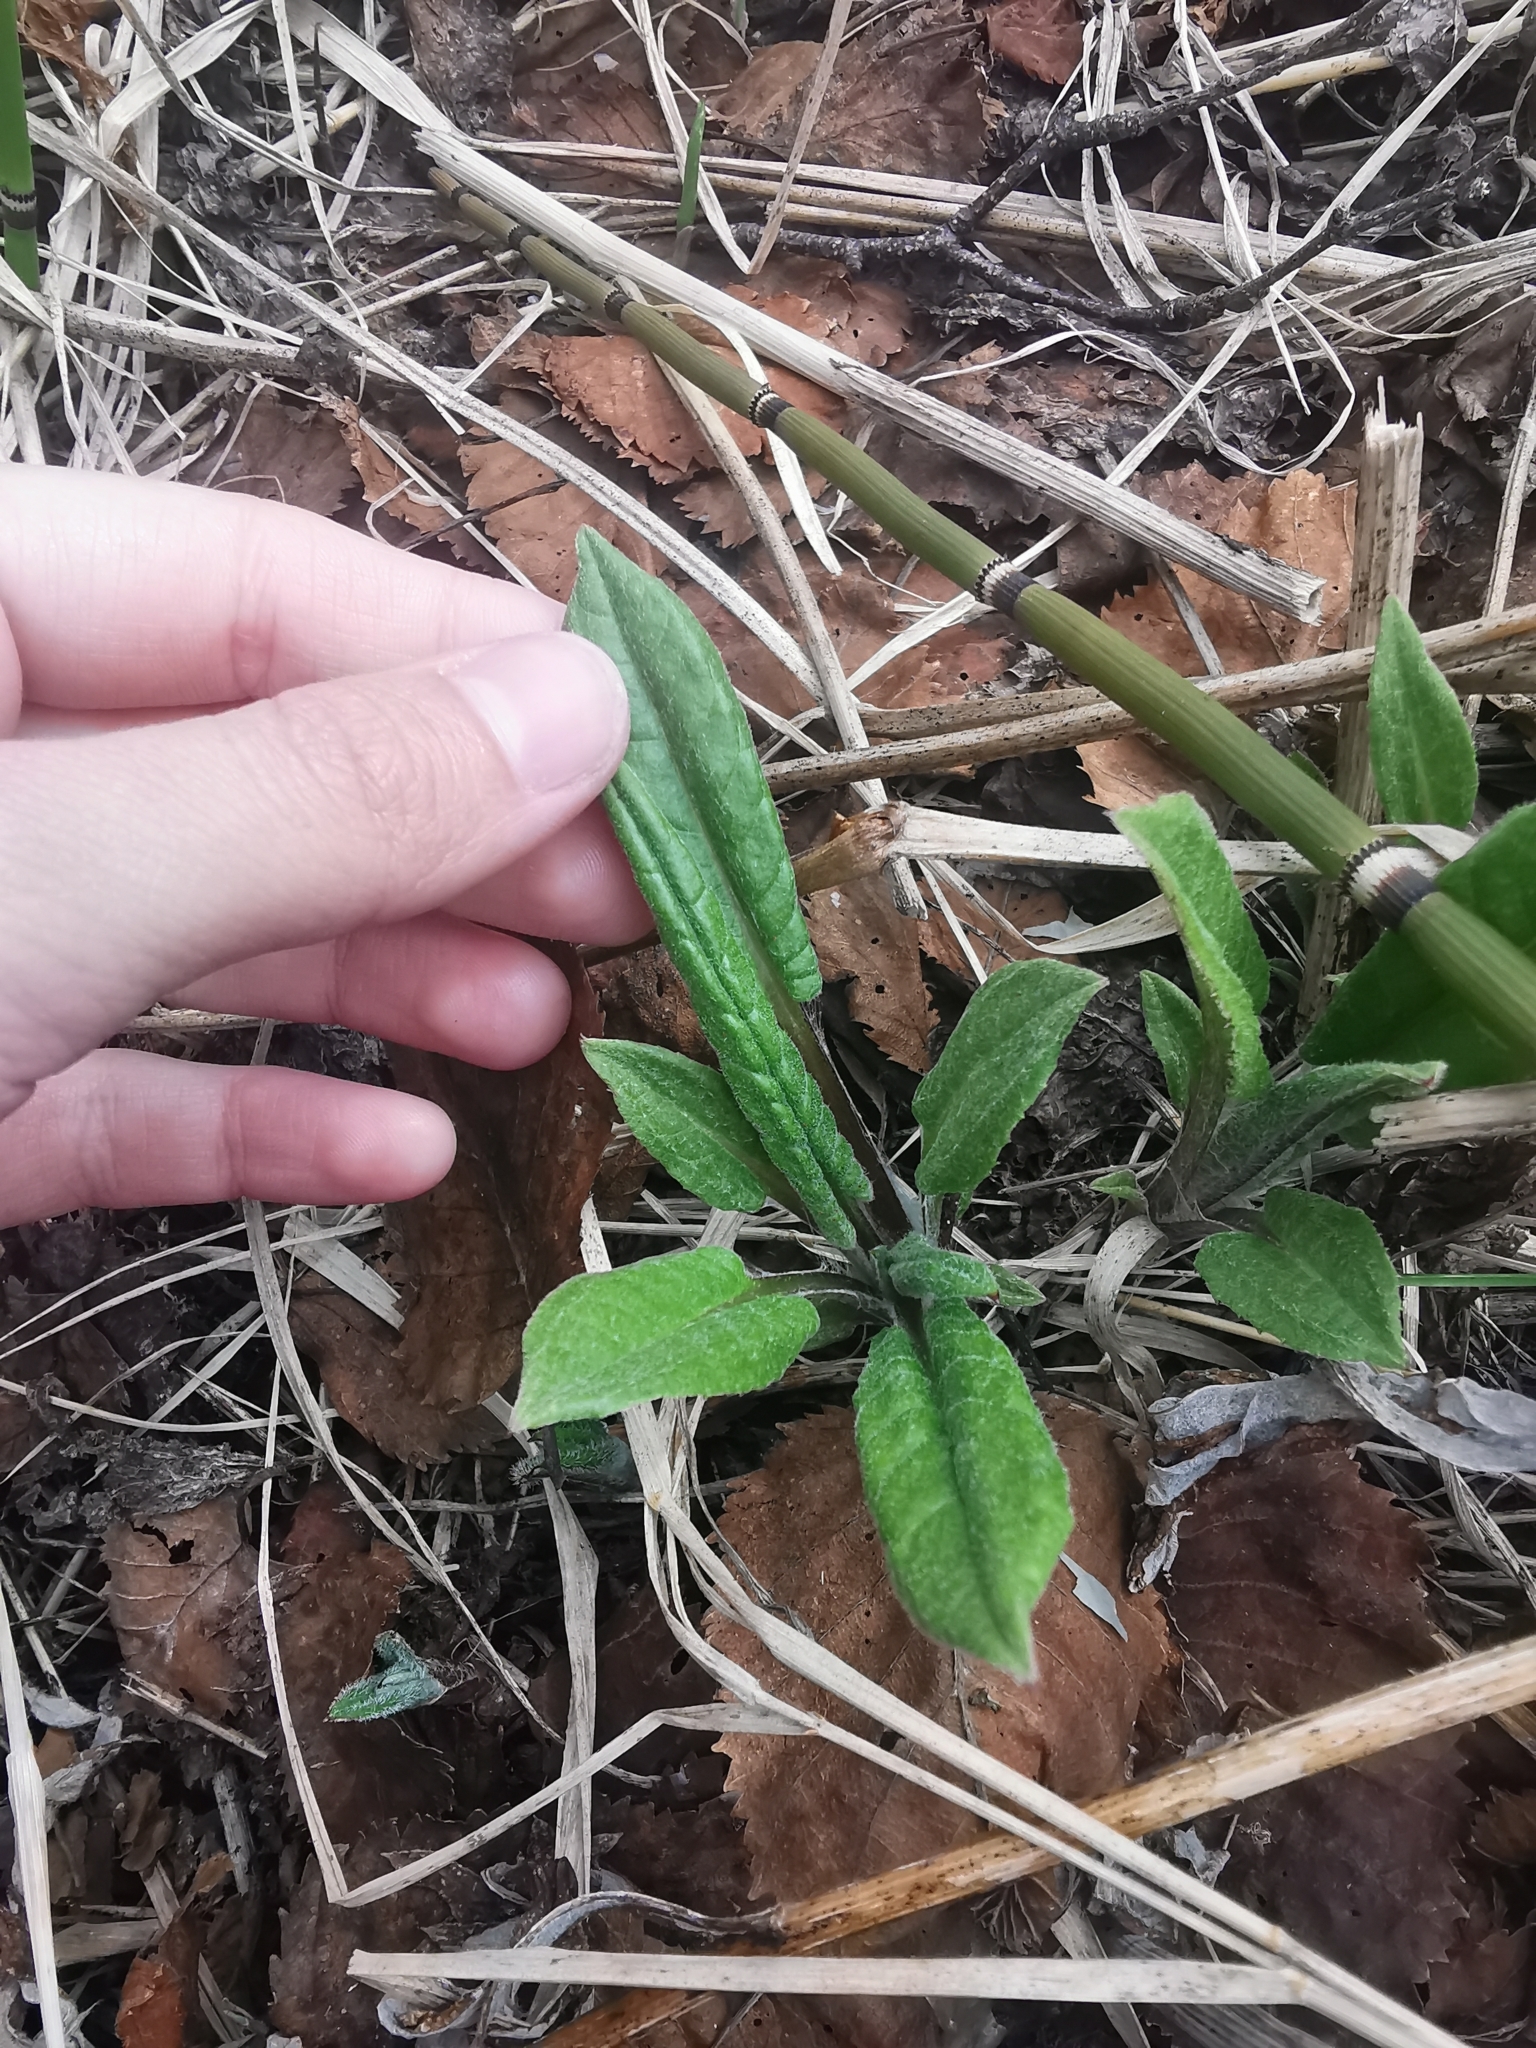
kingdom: Plantae
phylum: Tracheophyta
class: Magnoliopsida
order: Asterales
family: Asteraceae
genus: Saussurea
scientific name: Saussurea pseudotilesii
